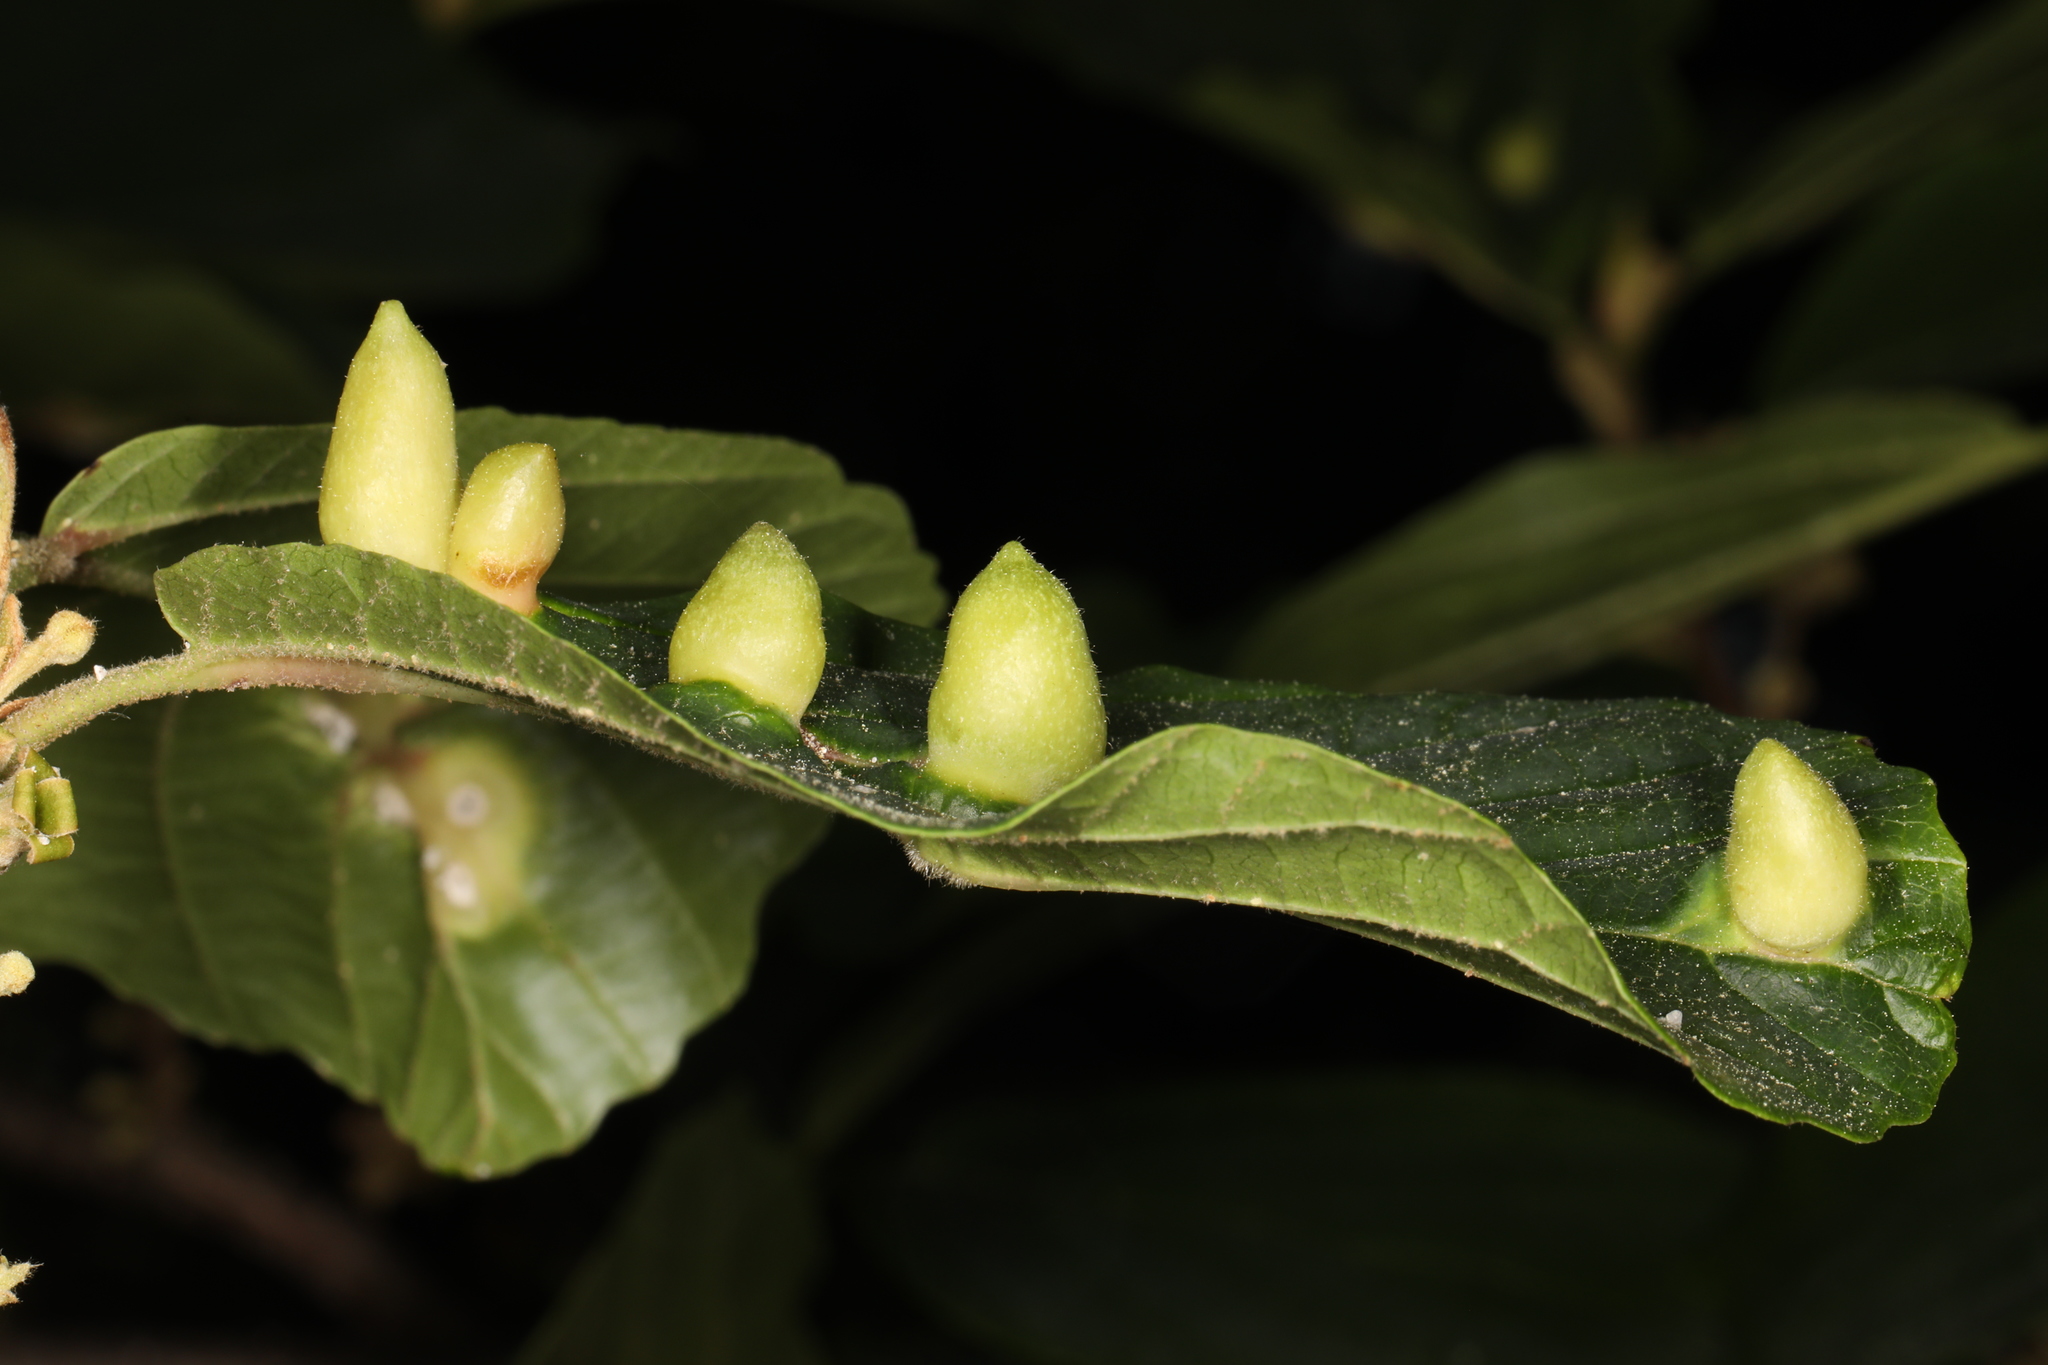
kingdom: Animalia
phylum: Arthropoda
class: Insecta
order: Hemiptera
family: Aphididae
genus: Hormaphis
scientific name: Hormaphis hamamelidis
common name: Witch-hazel cone gall aphid
